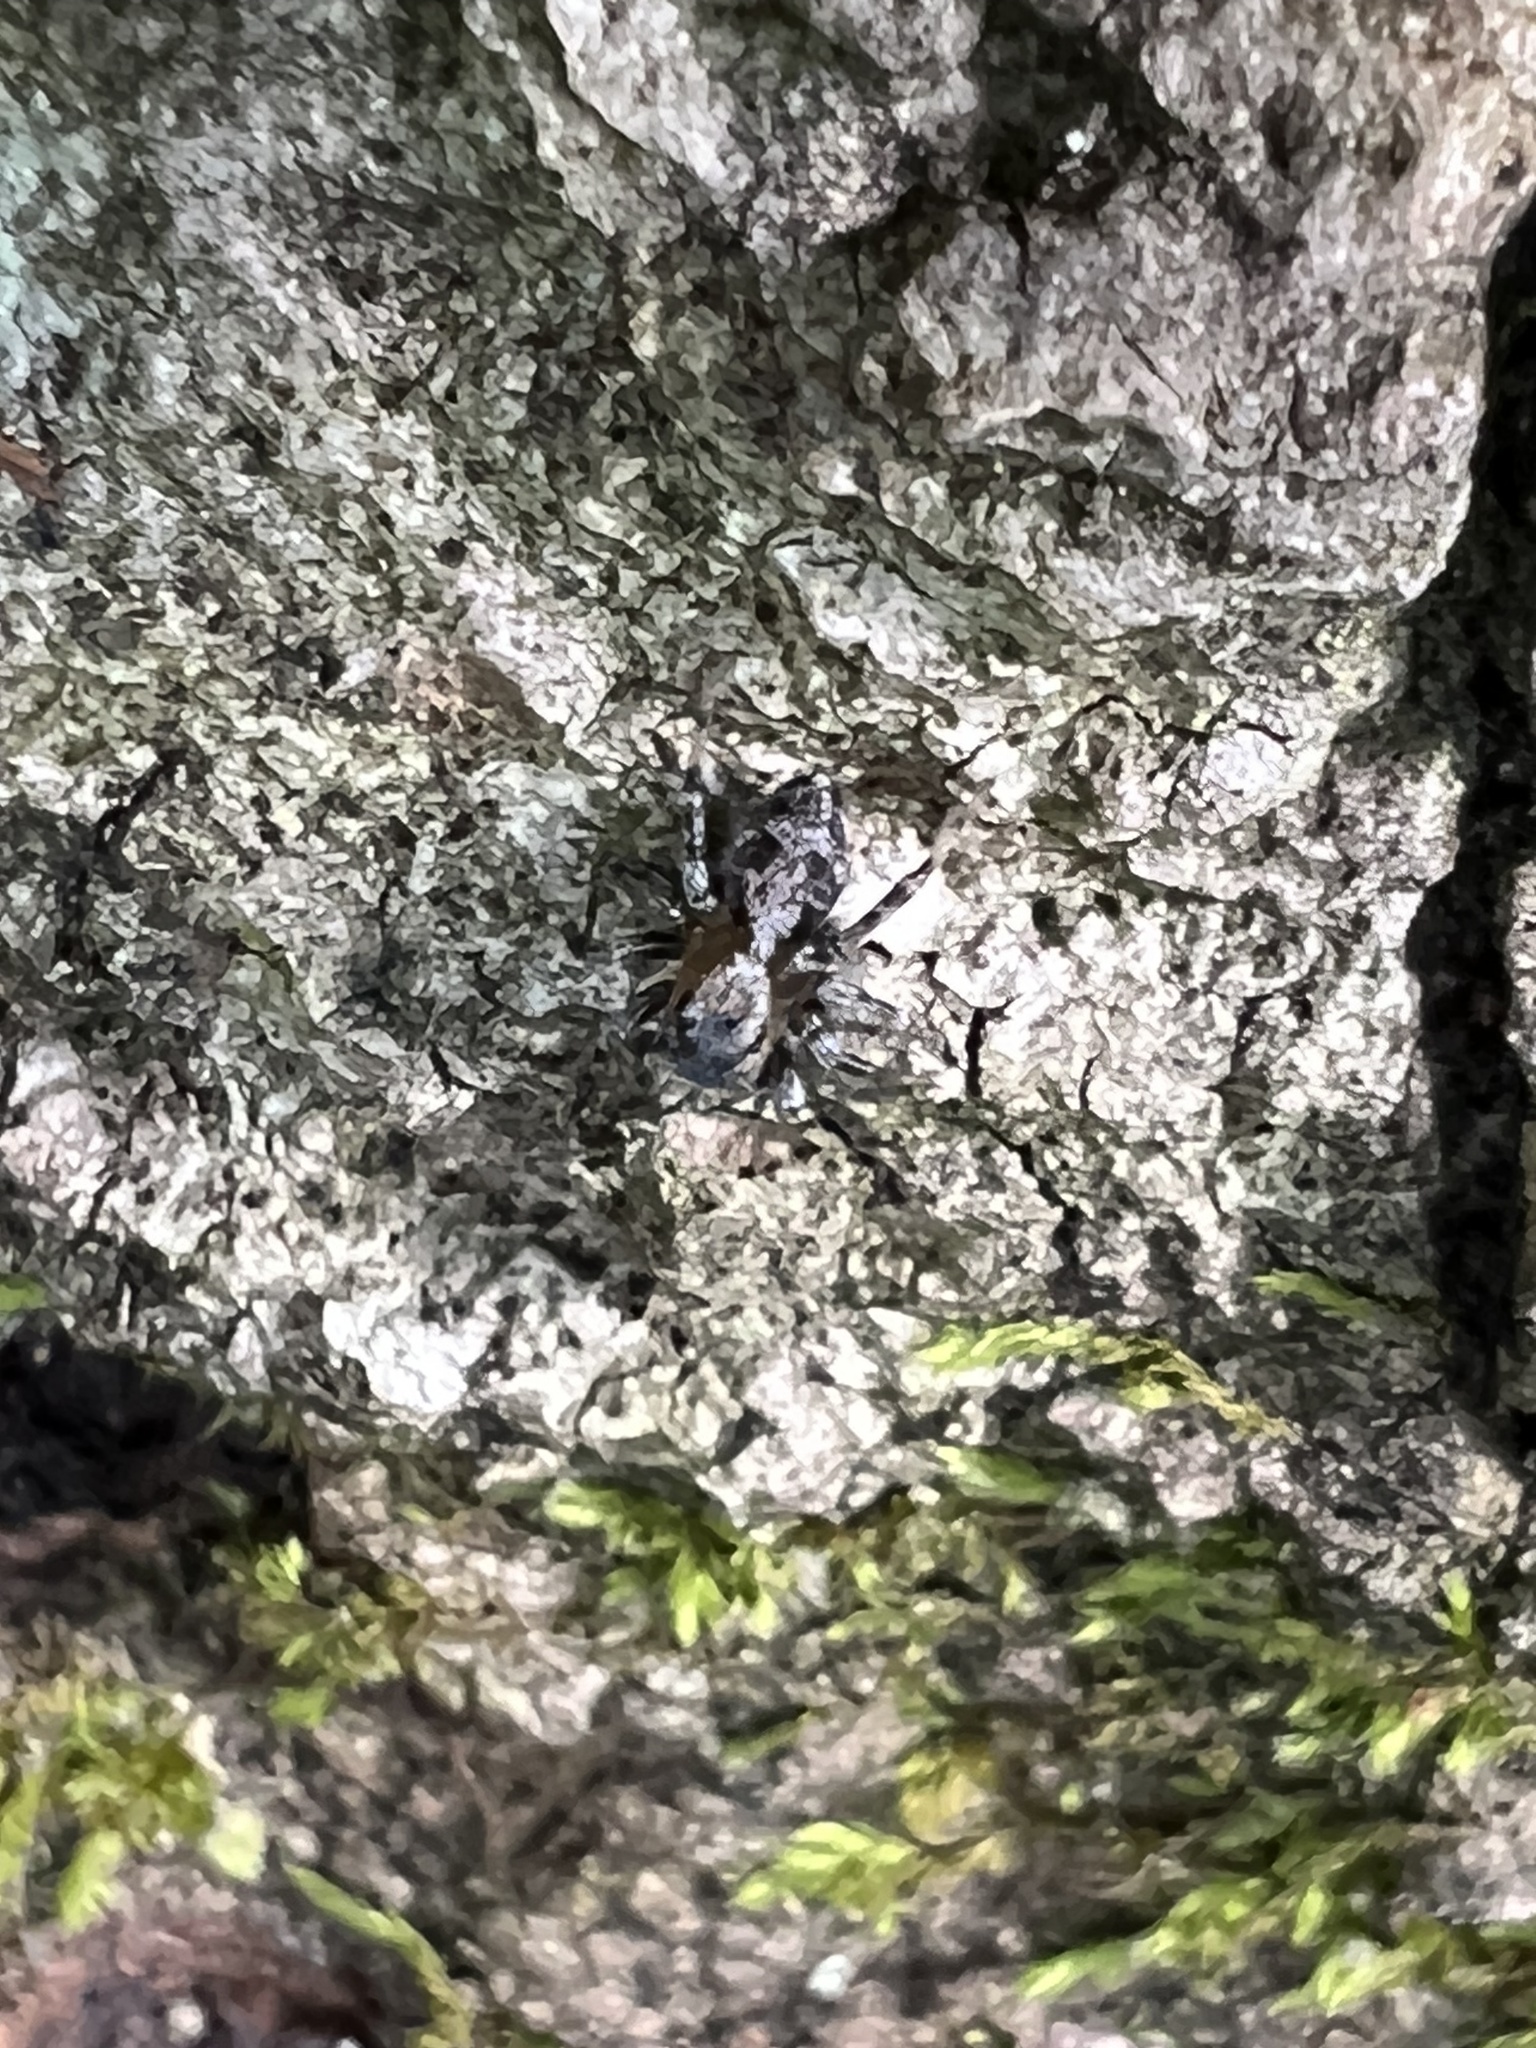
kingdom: Animalia
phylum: Arthropoda
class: Arachnida
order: Araneae
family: Salticidae
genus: Naphrys
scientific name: Naphrys pulex
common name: Flea jumping spider
